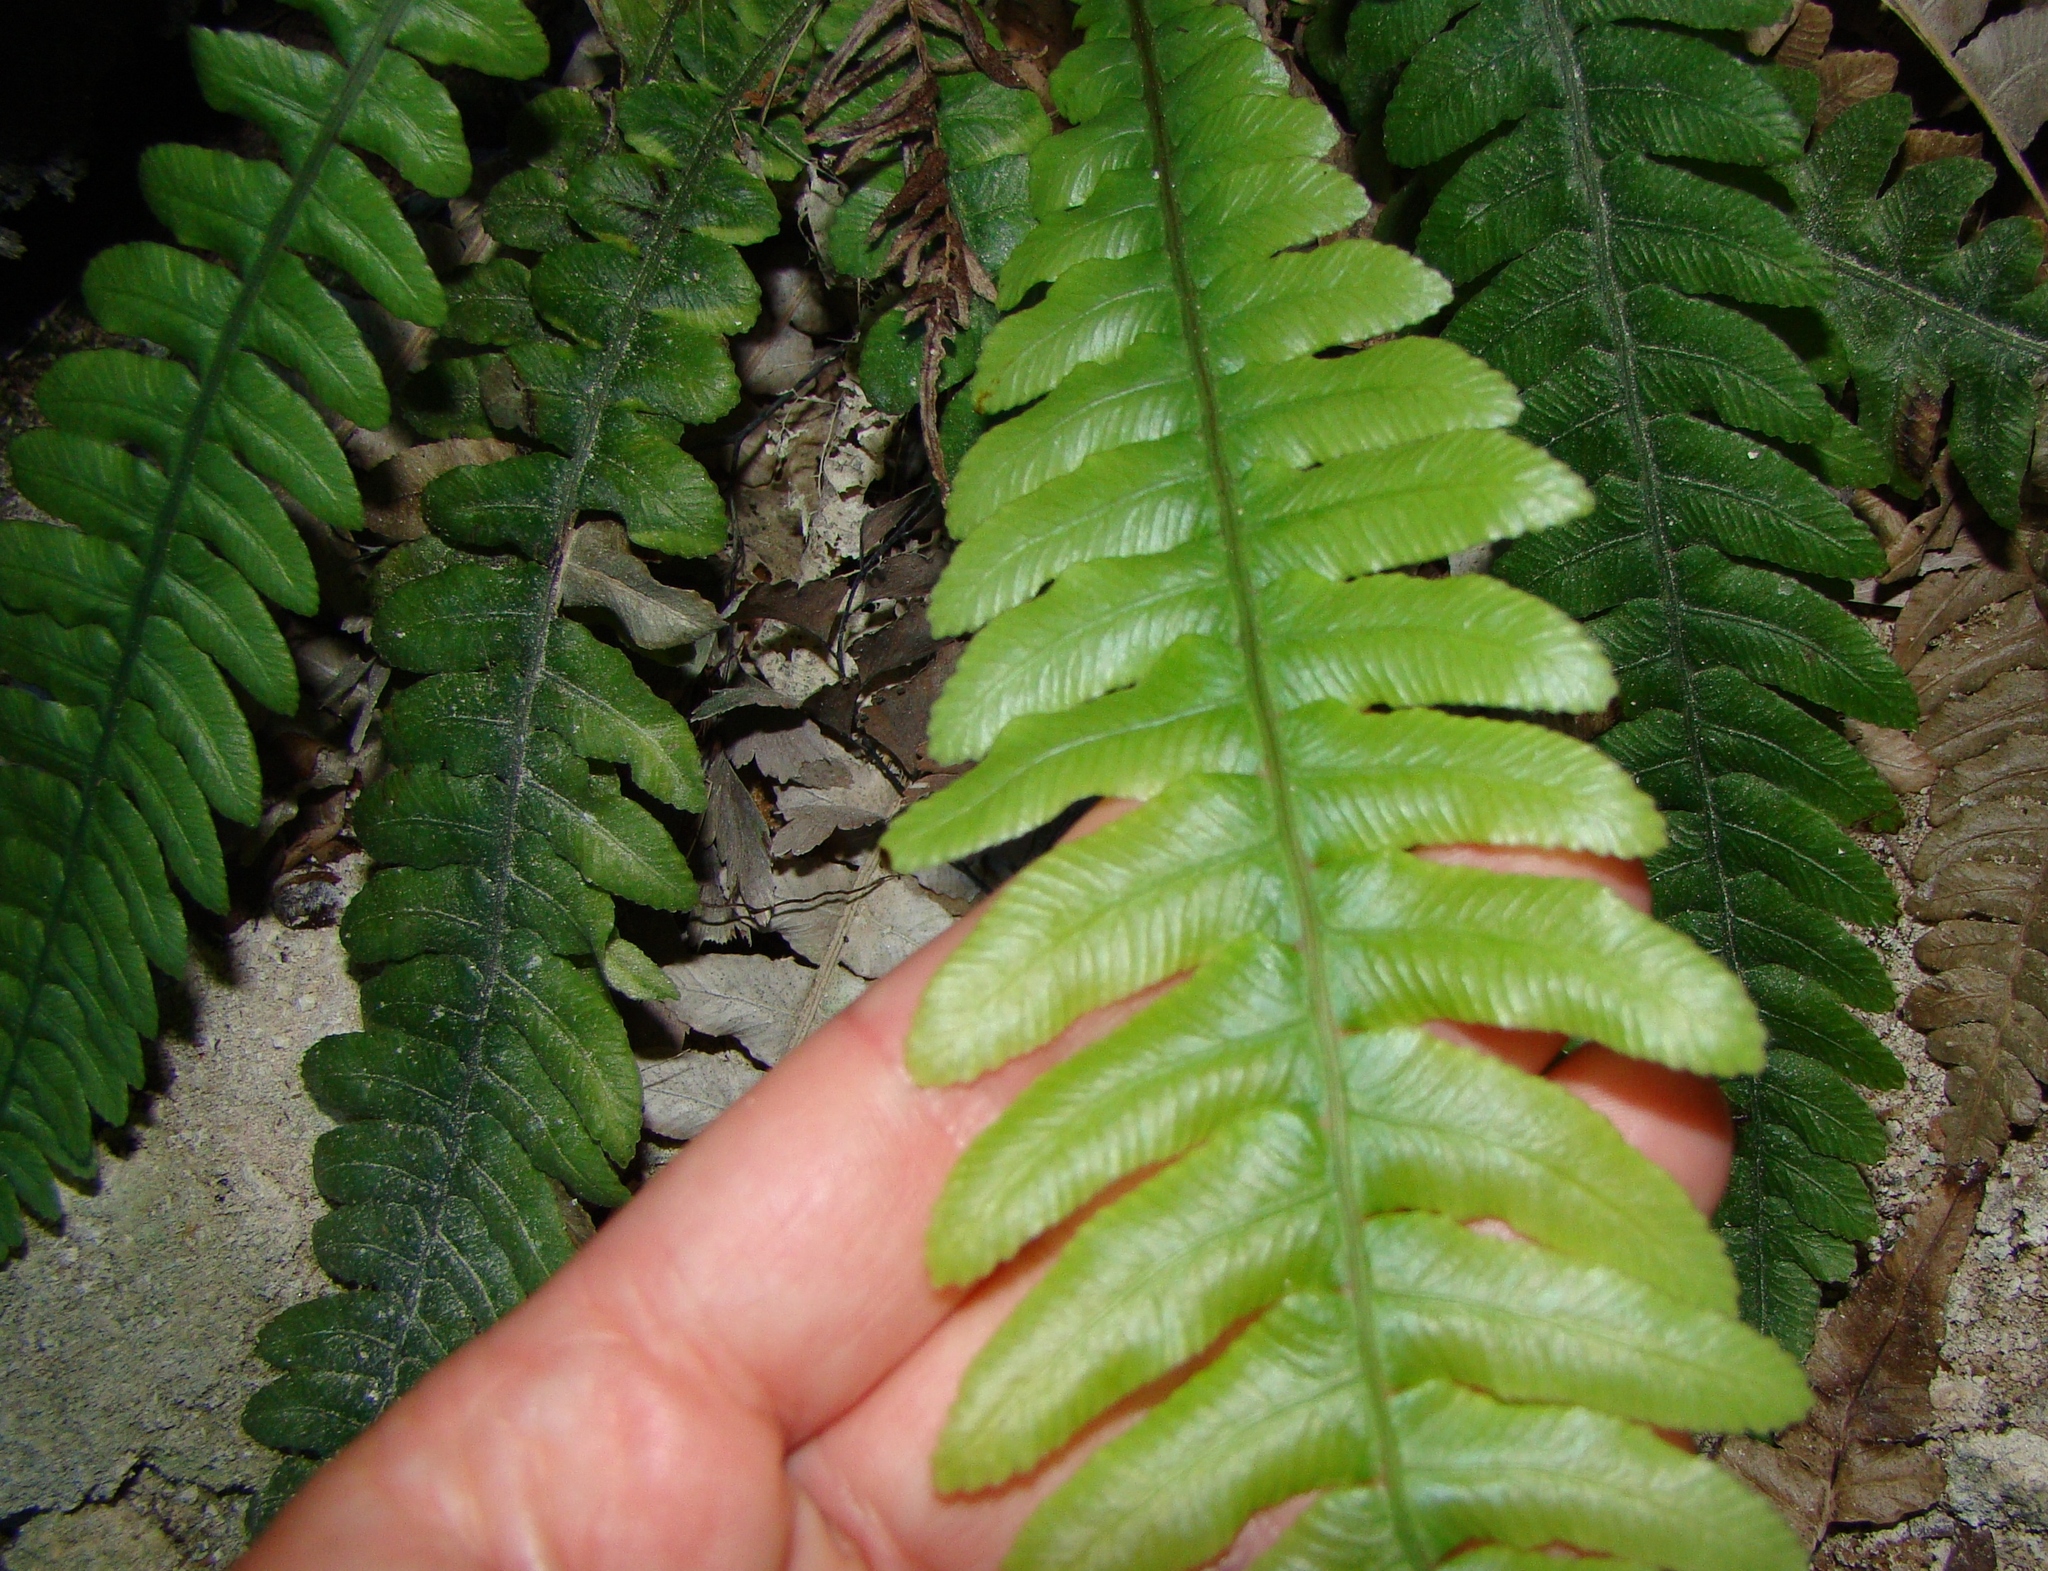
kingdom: Plantae
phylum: Tracheophyta
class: Polypodiopsida
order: Polypodiales
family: Blechnaceae
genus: Austroblechnum
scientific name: Austroblechnum lanceolatum
